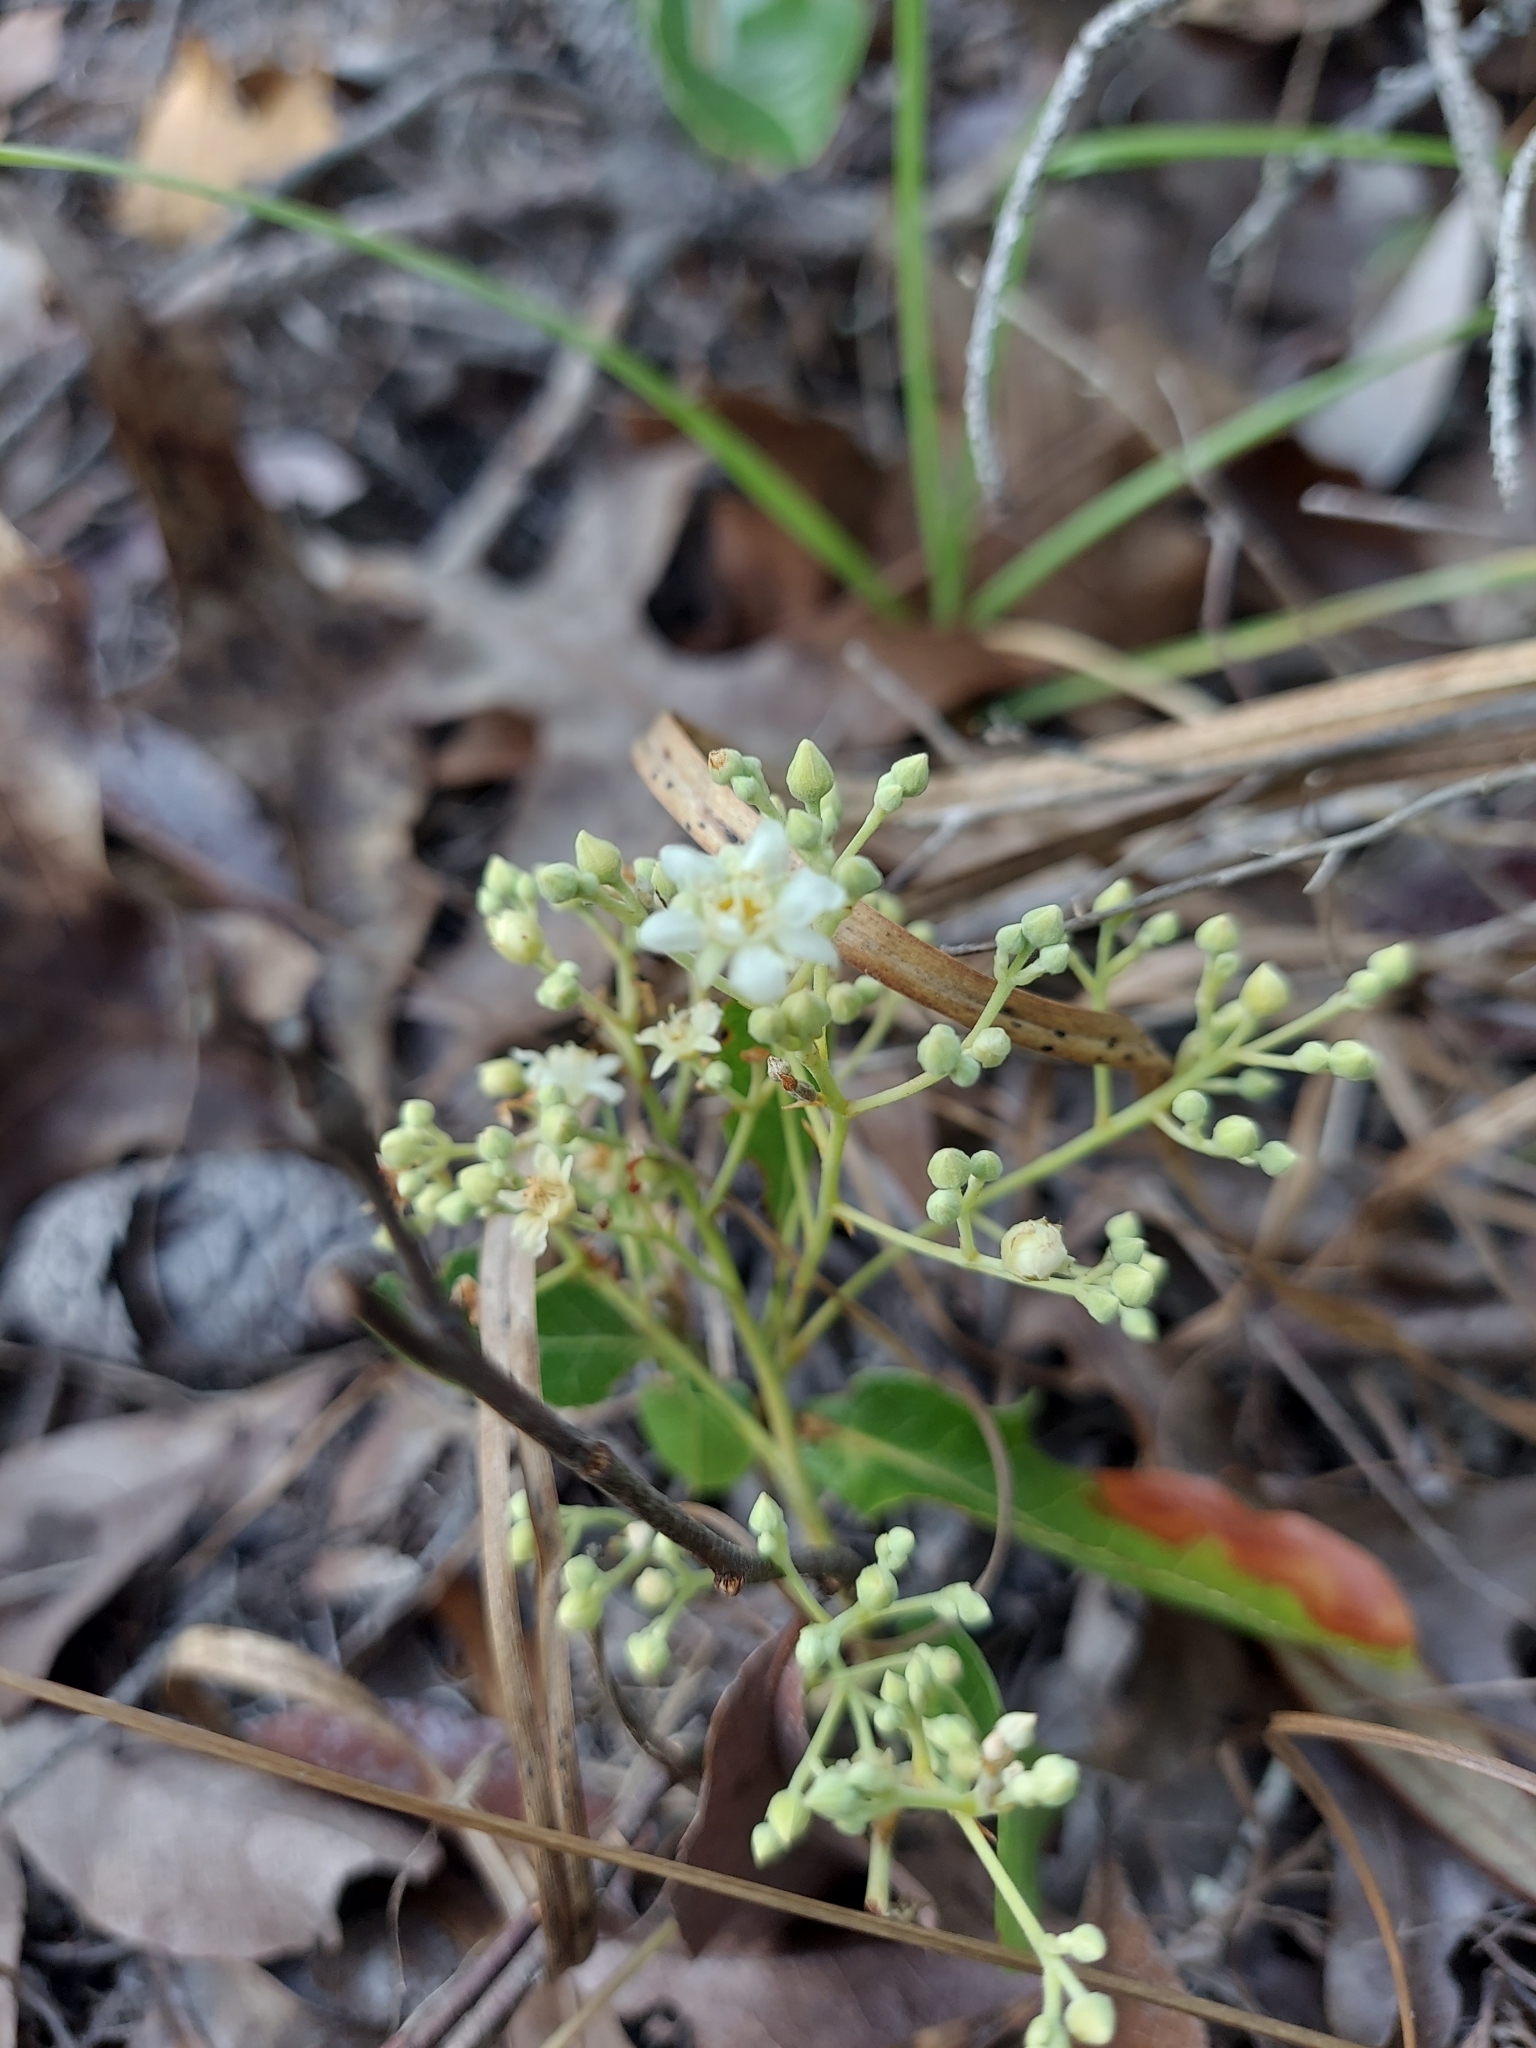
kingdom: Plantae
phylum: Tracheophyta
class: Magnoliopsida
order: Malpighiales
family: Chrysobalanaceae
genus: Geobalanus
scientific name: Geobalanus oblongifolius
